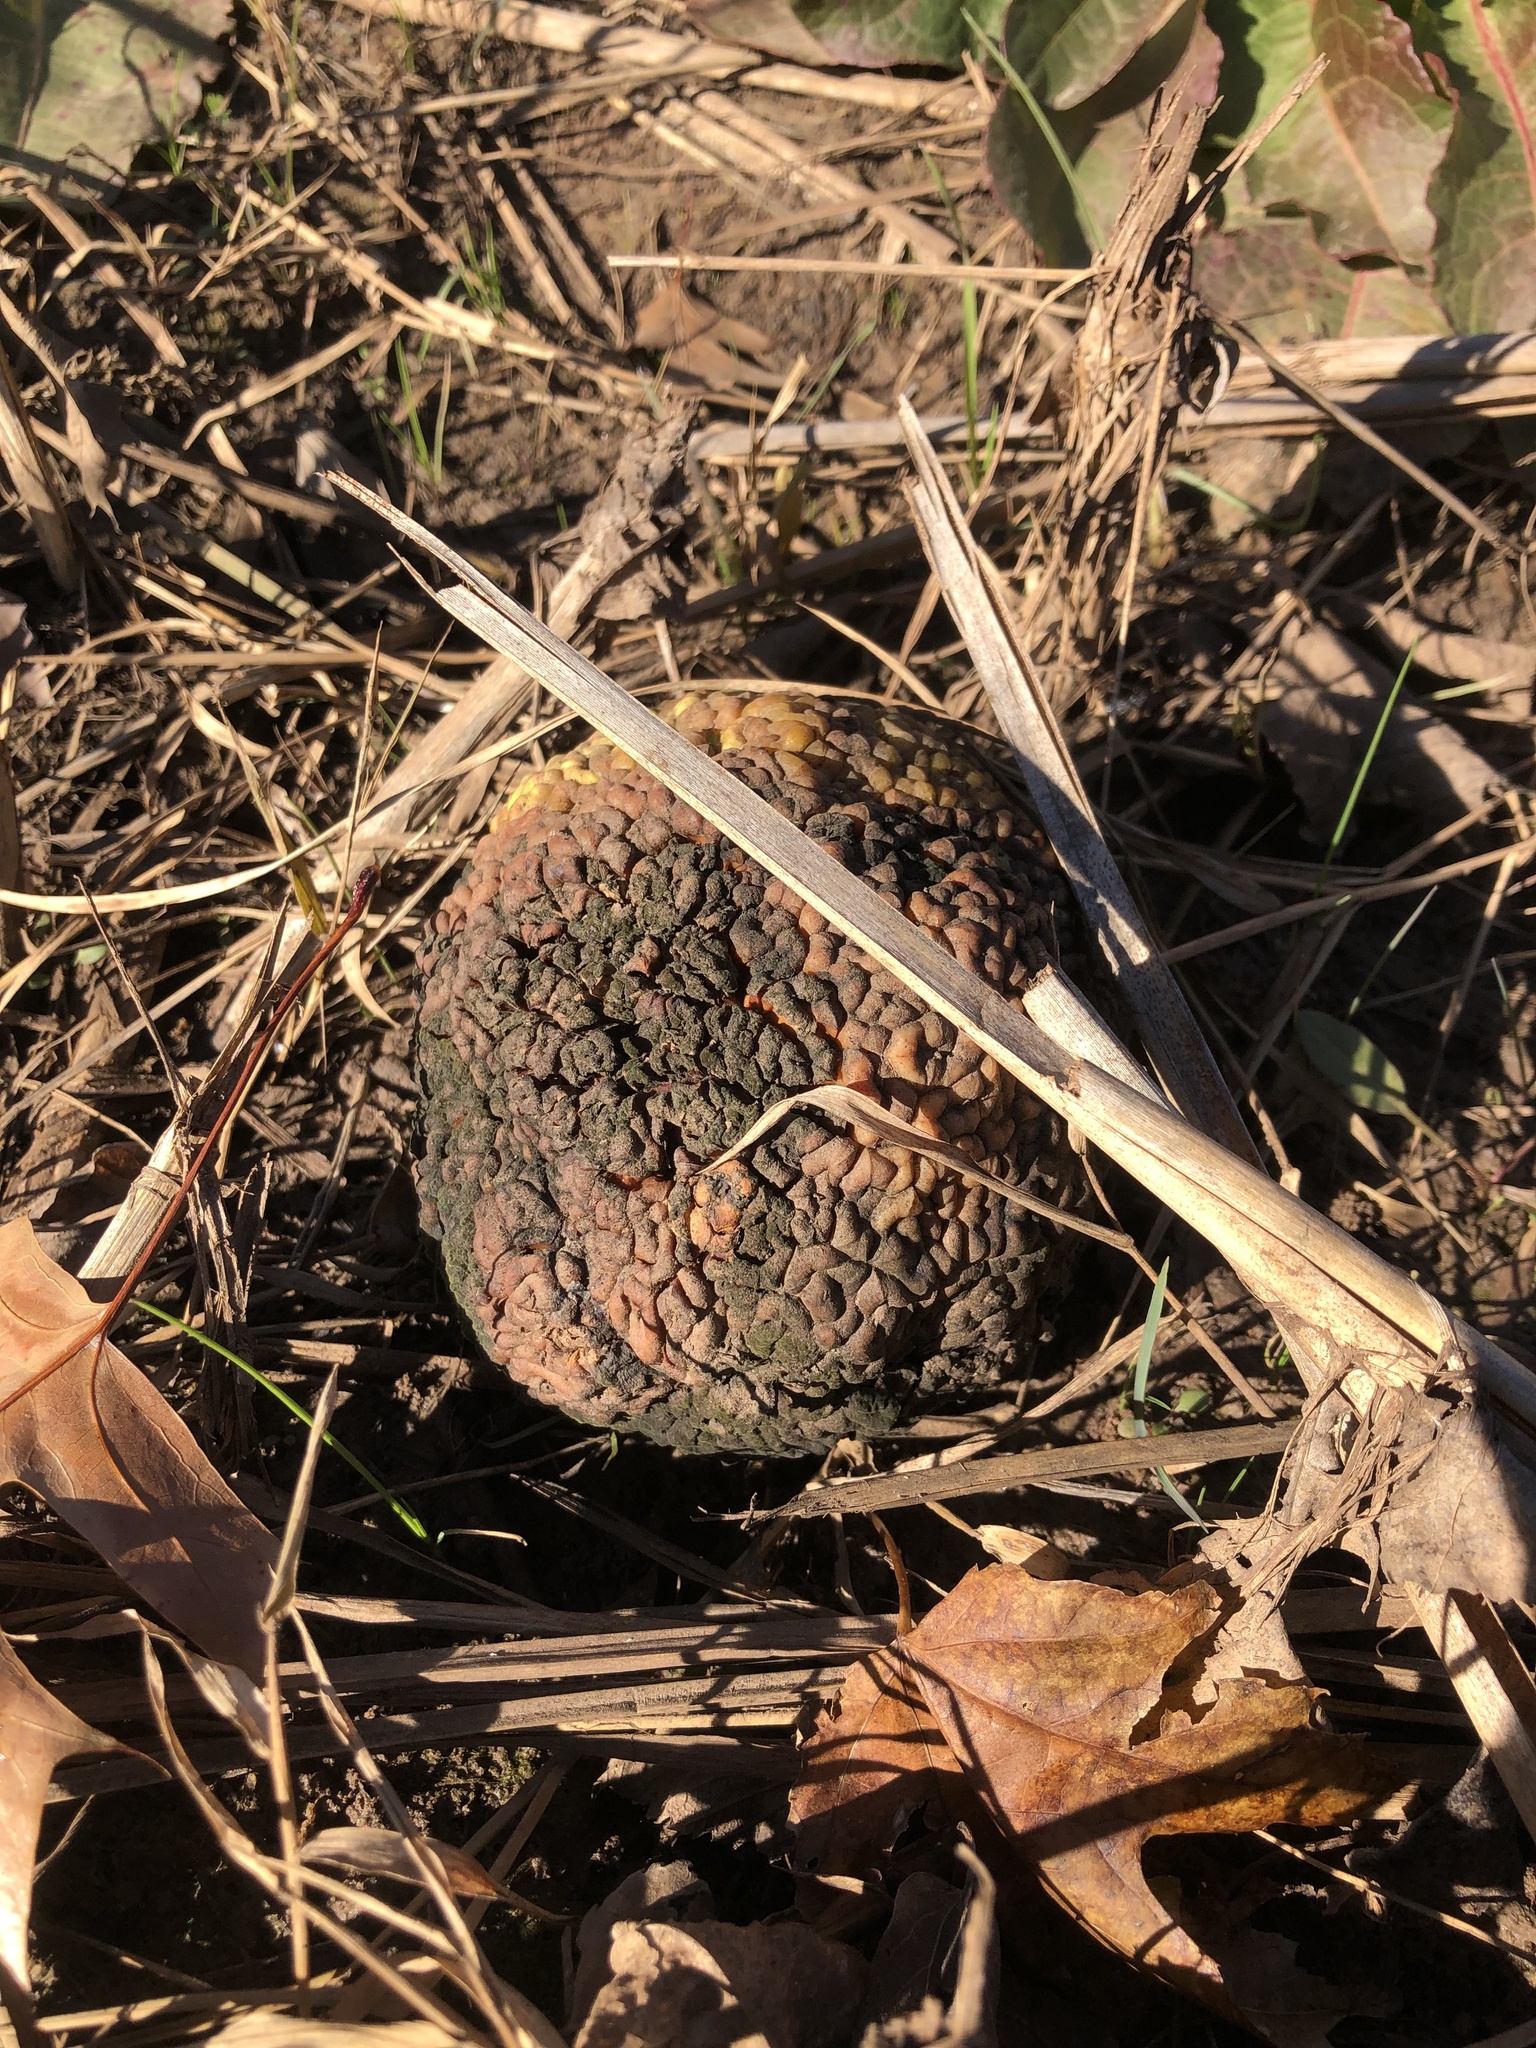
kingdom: Plantae
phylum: Tracheophyta
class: Magnoliopsida
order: Rosales
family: Moraceae
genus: Maclura
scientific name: Maclura pomifera
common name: Osage-orange
